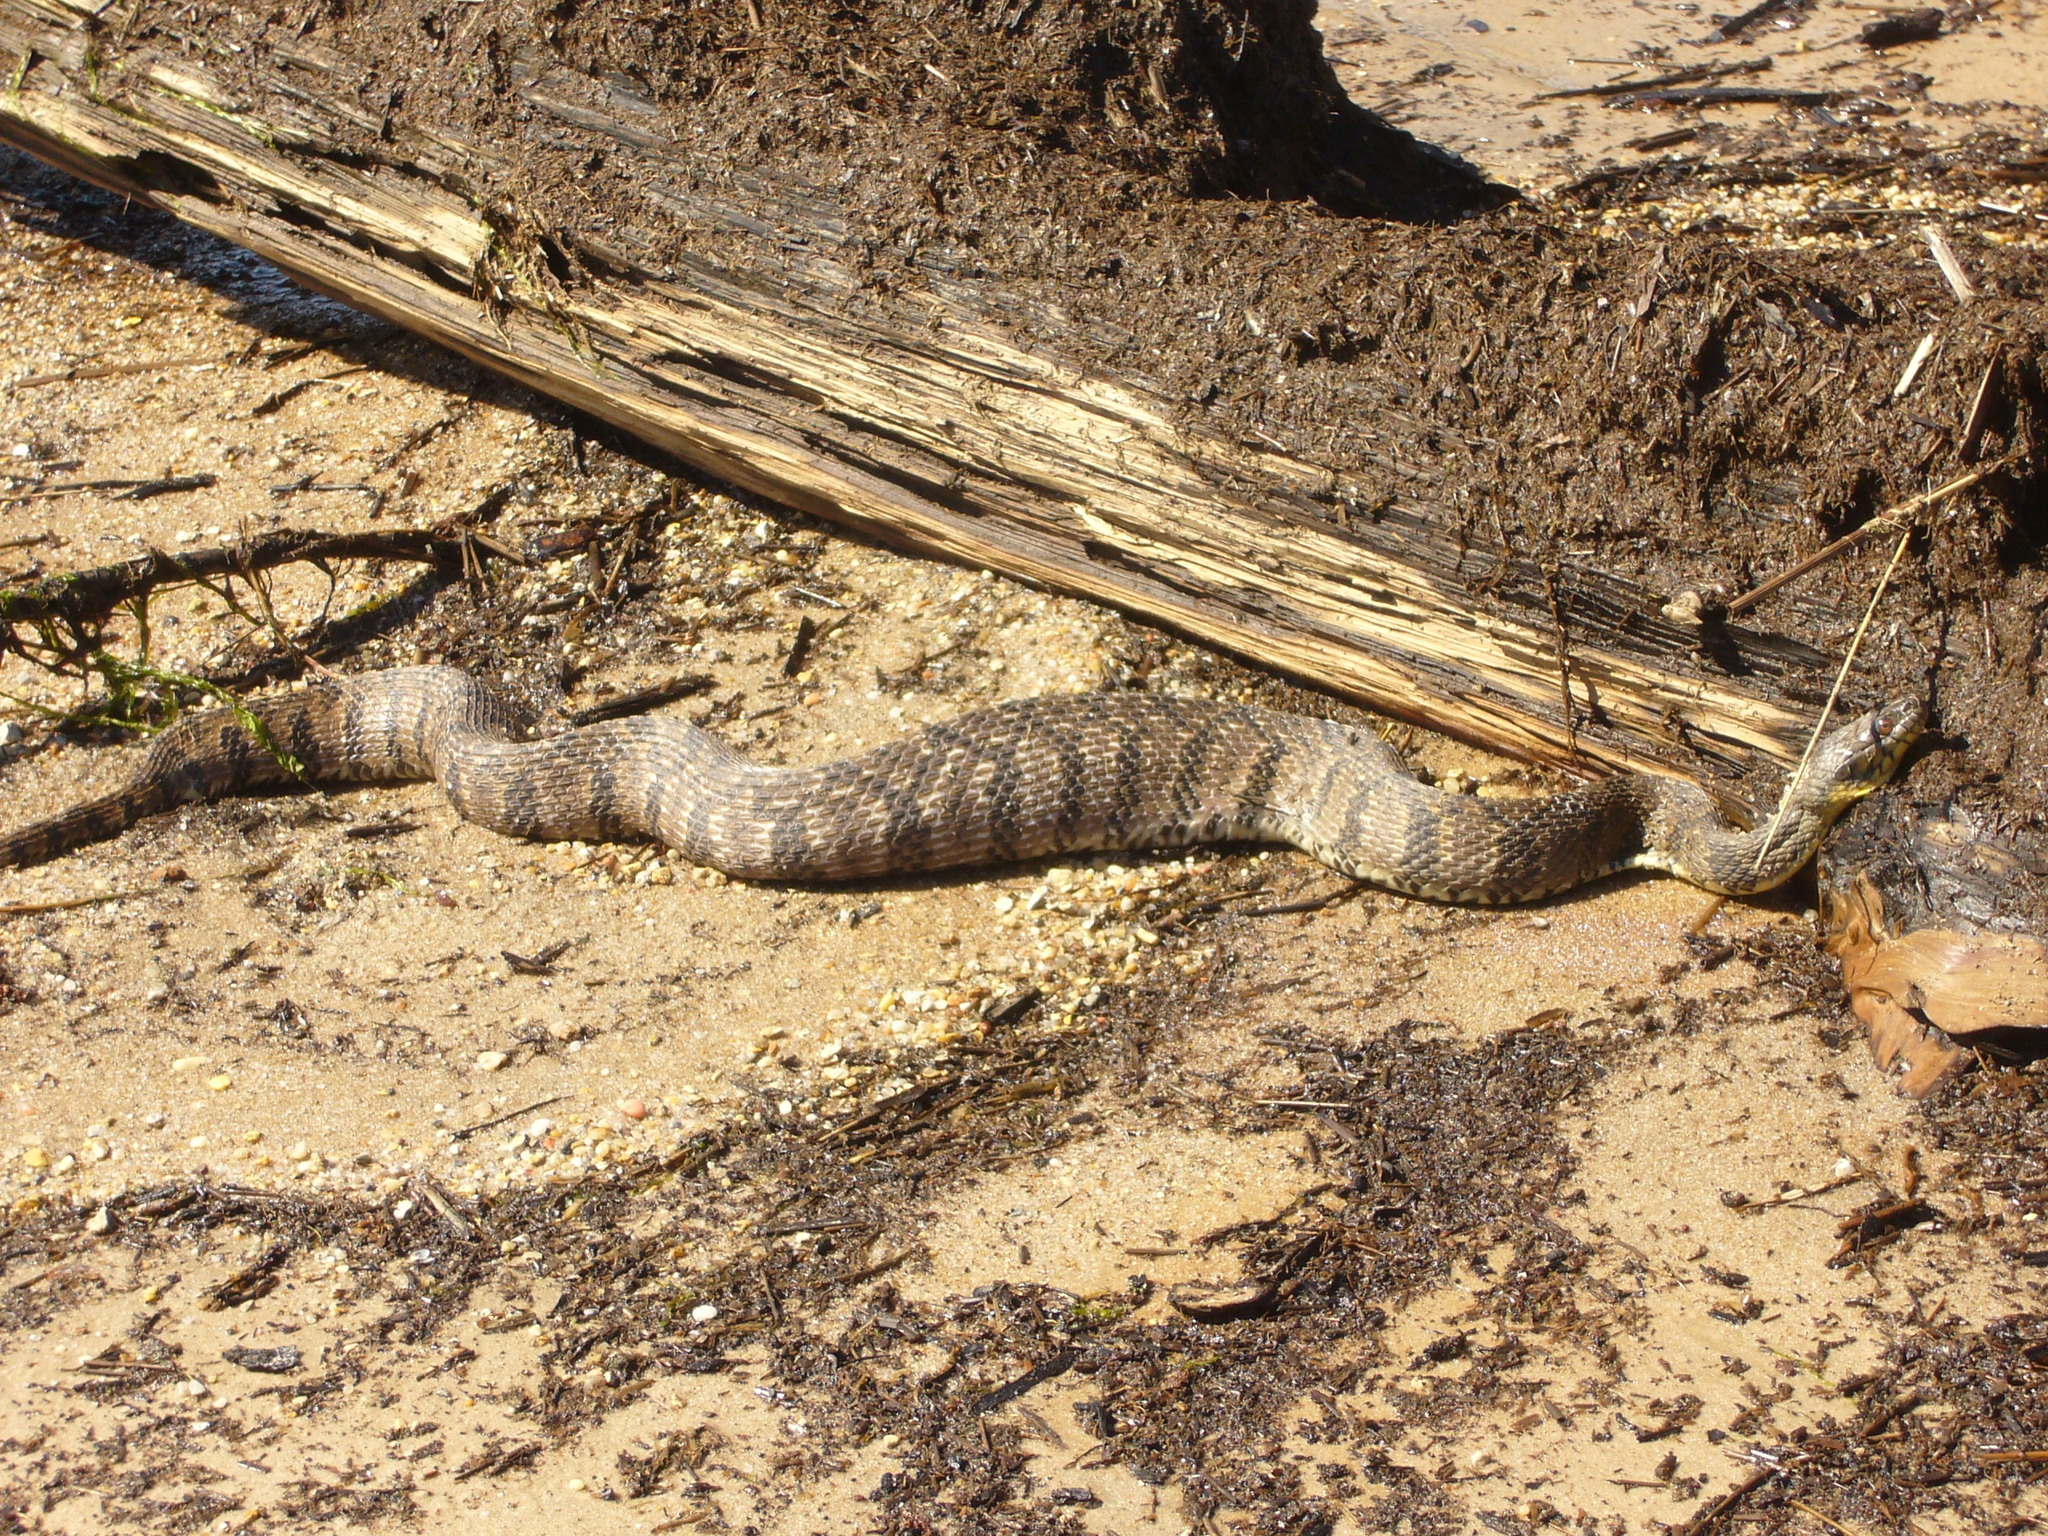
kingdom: Animalia
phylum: Chordata
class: Squamata
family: Colubridae
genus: Nerodia
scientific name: Nerodia rhombifer
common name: Diamondback water snake
